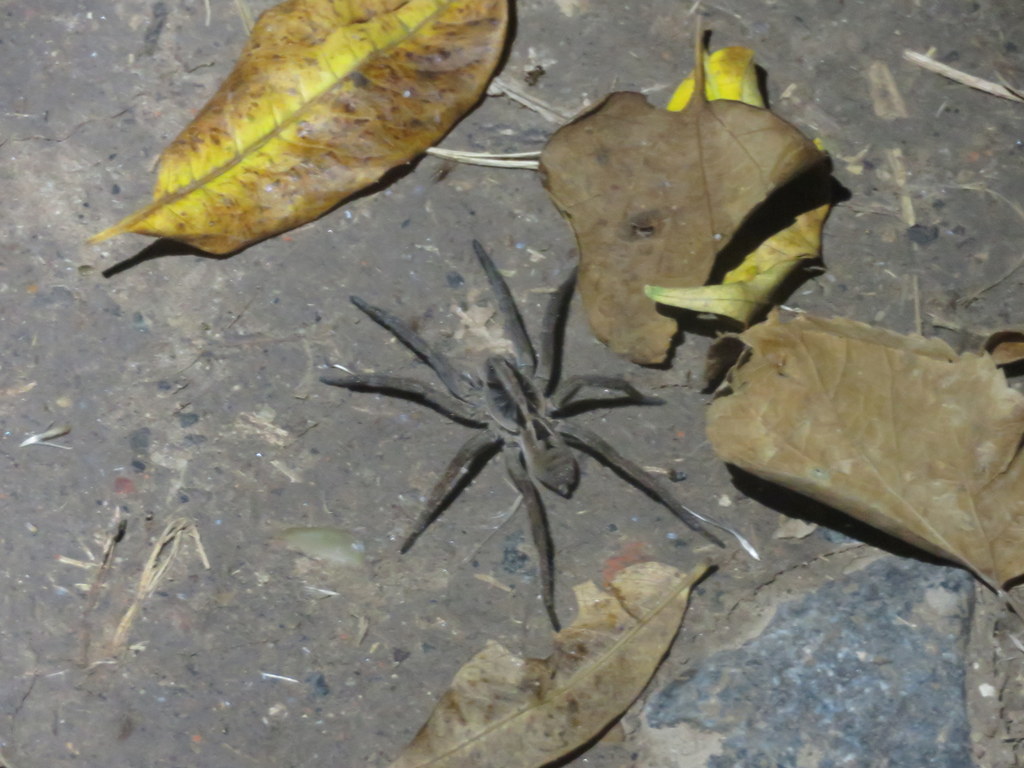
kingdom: Animalia
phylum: Arthropoda
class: Arachnida
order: Araneae
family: Lycosidae
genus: Lycosa
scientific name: Lycosa erythrognatha
